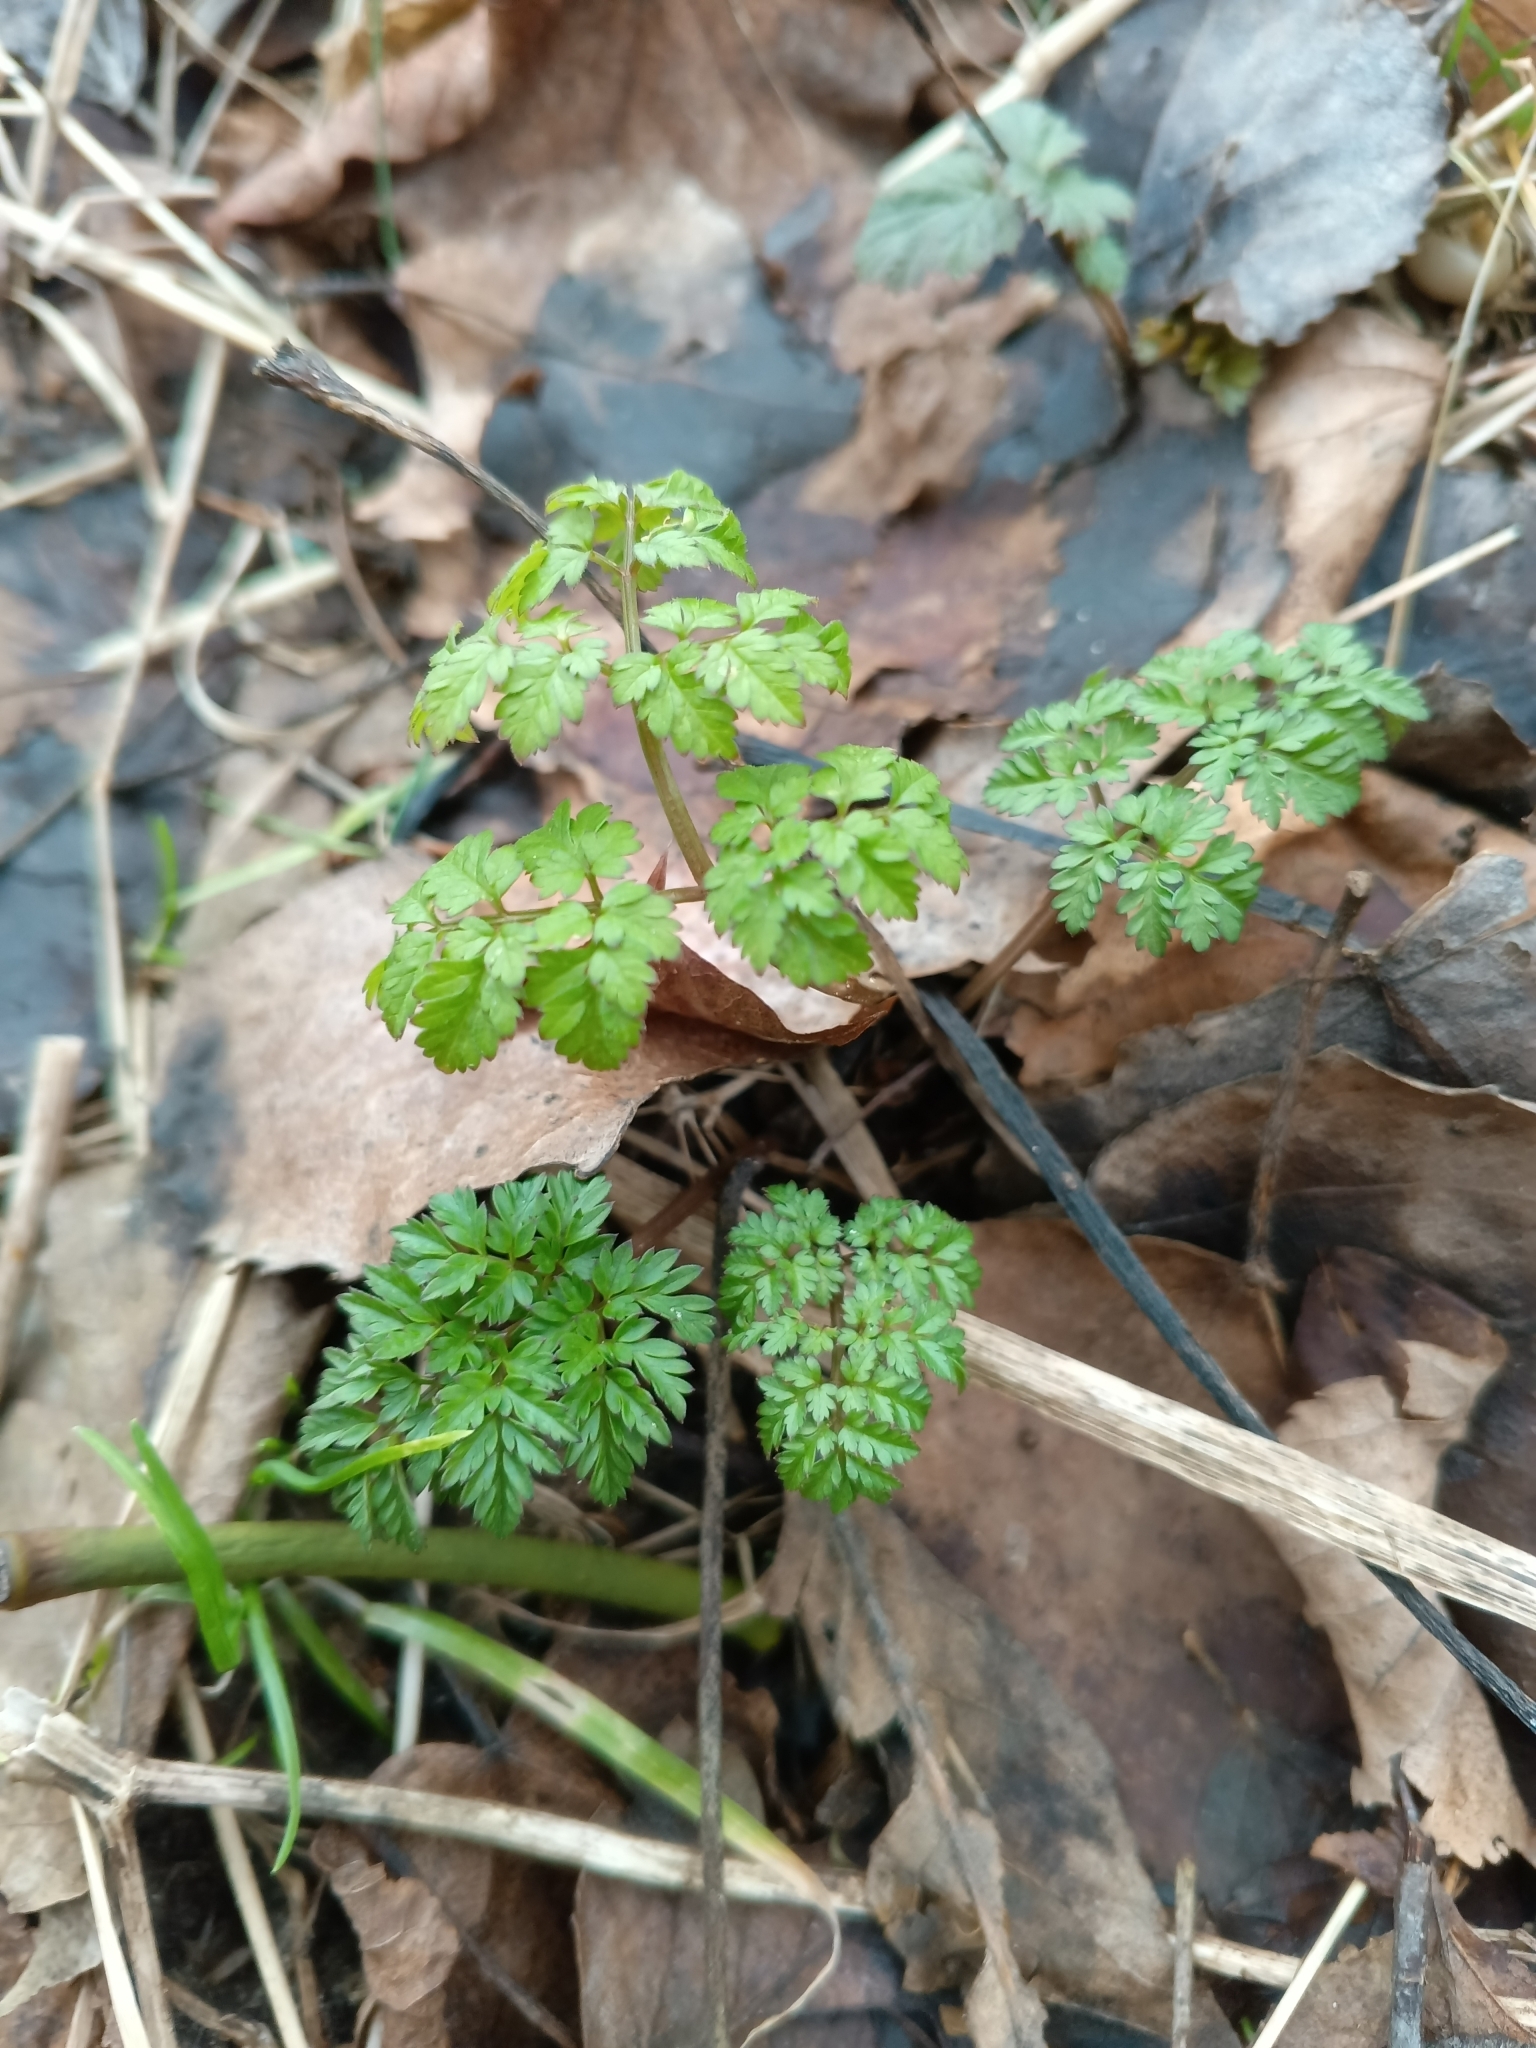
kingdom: Plantae
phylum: Tracheophyta
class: Magnoliopsida
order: Apiales
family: Apiaceae
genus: Anthriscus
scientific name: Anthriscus sylvestris
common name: Cow parsley
